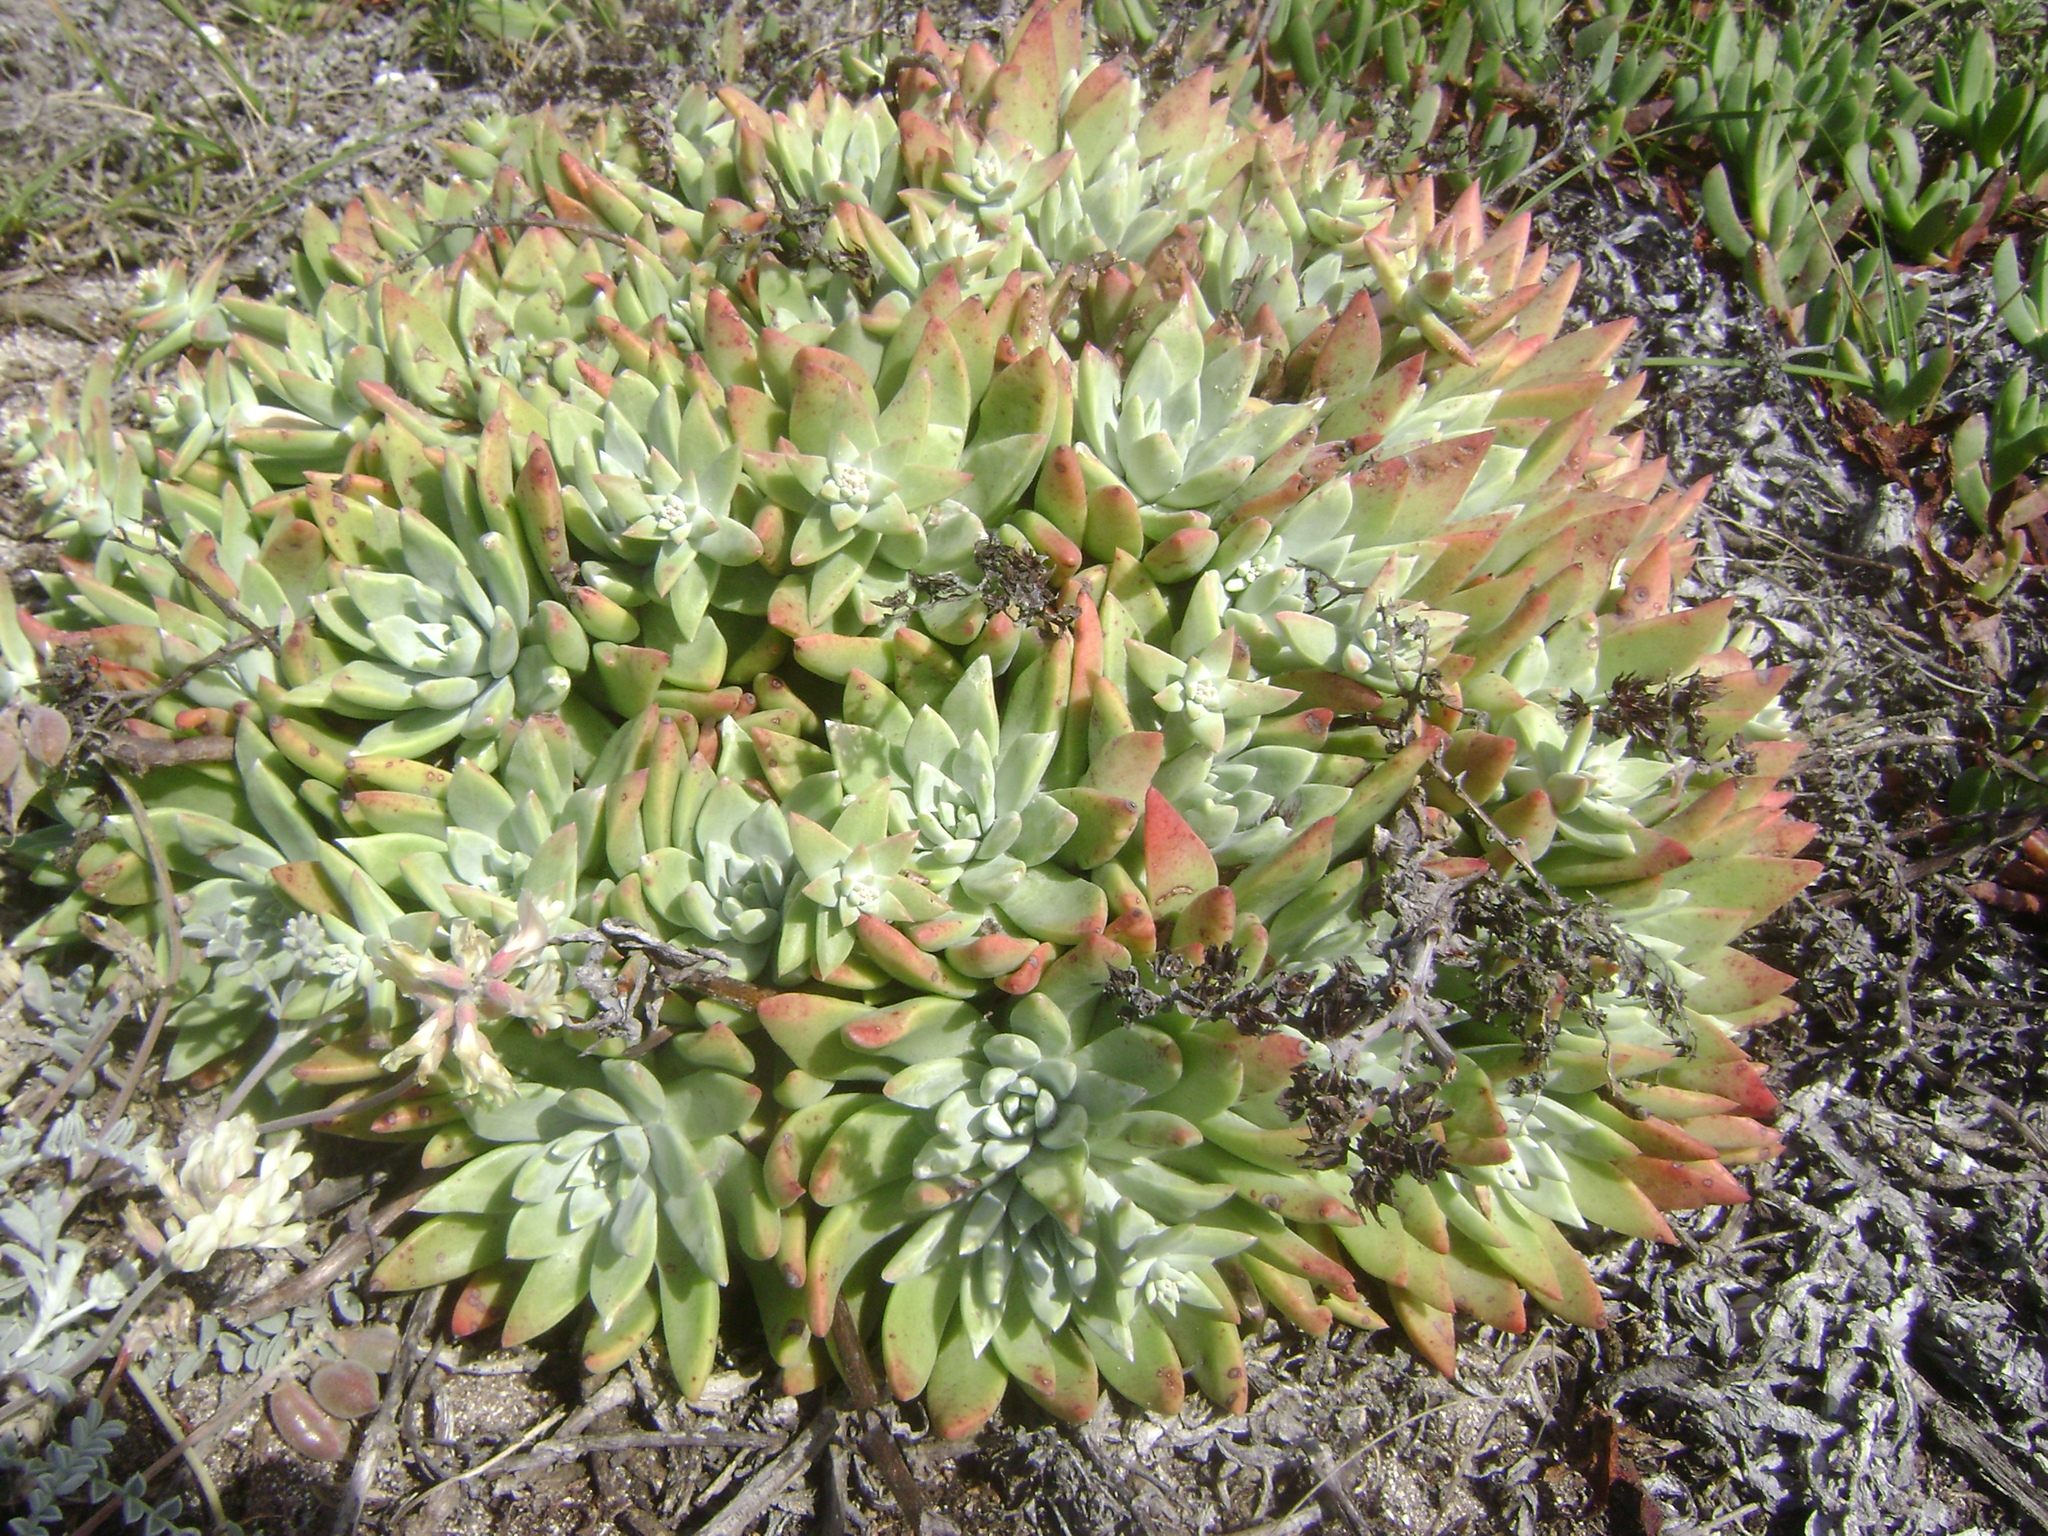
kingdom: Plantae
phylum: Tracheophyta
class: Magnoliopsida
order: Saxifragales
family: Crassulaceae
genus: Dudleya
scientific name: Dudleya greenei
